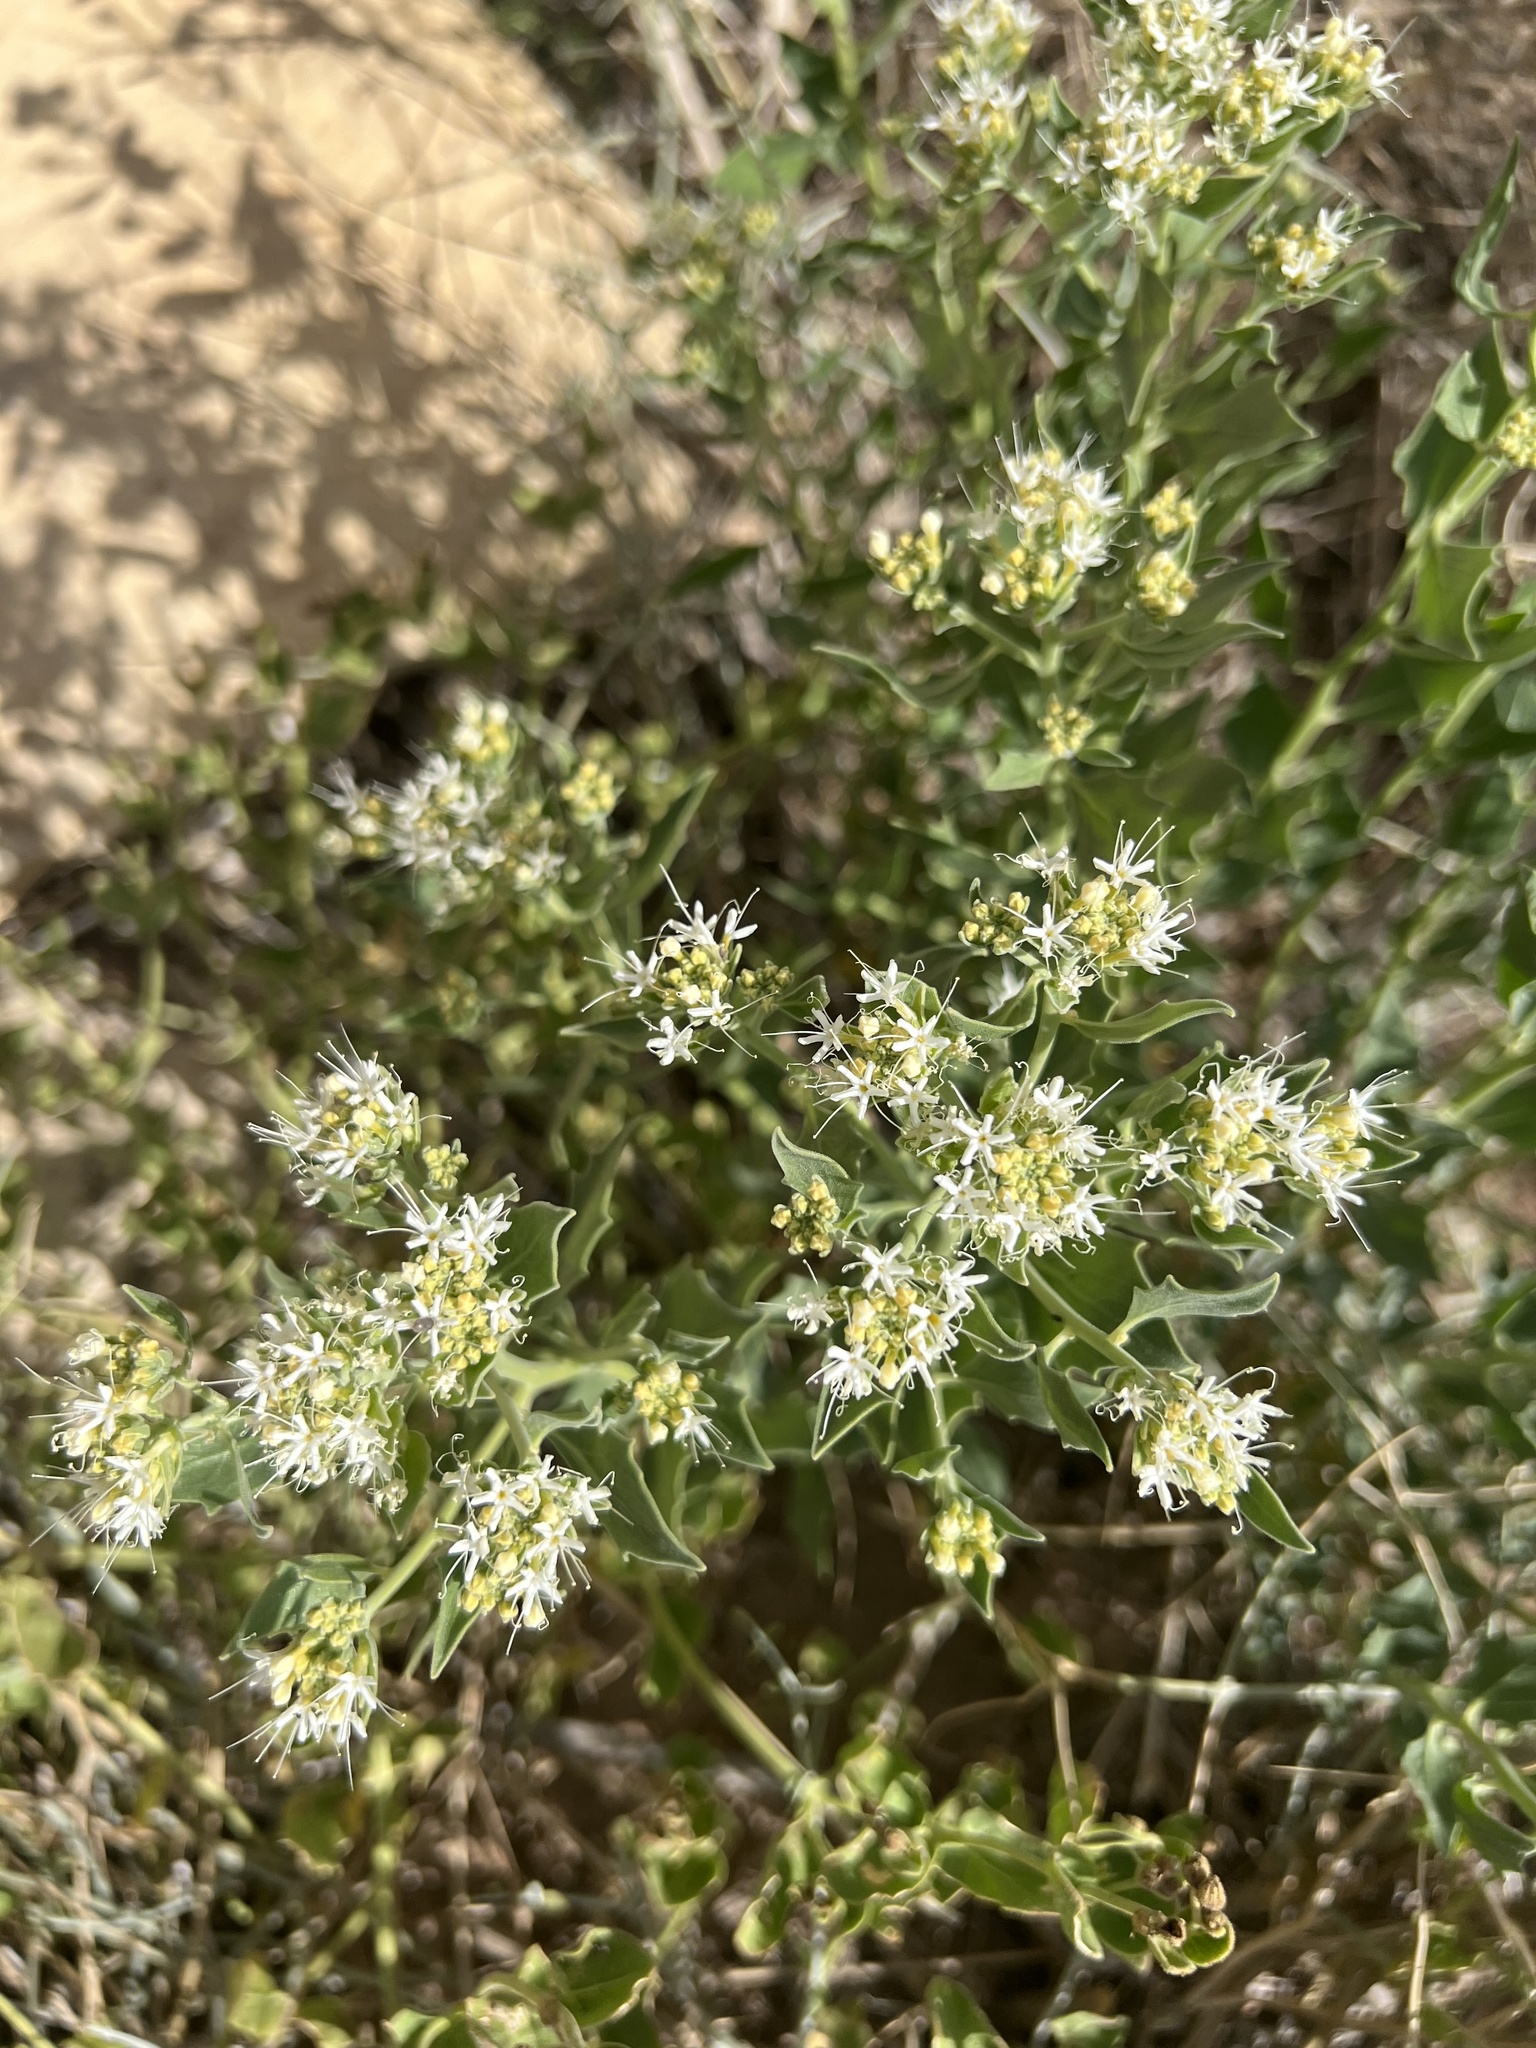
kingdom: Plantae
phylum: Tracheophyta
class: Magnoliopsida
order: Cornales
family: Loasaceae
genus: Petalonyx
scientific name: Petalonyx nitidus
